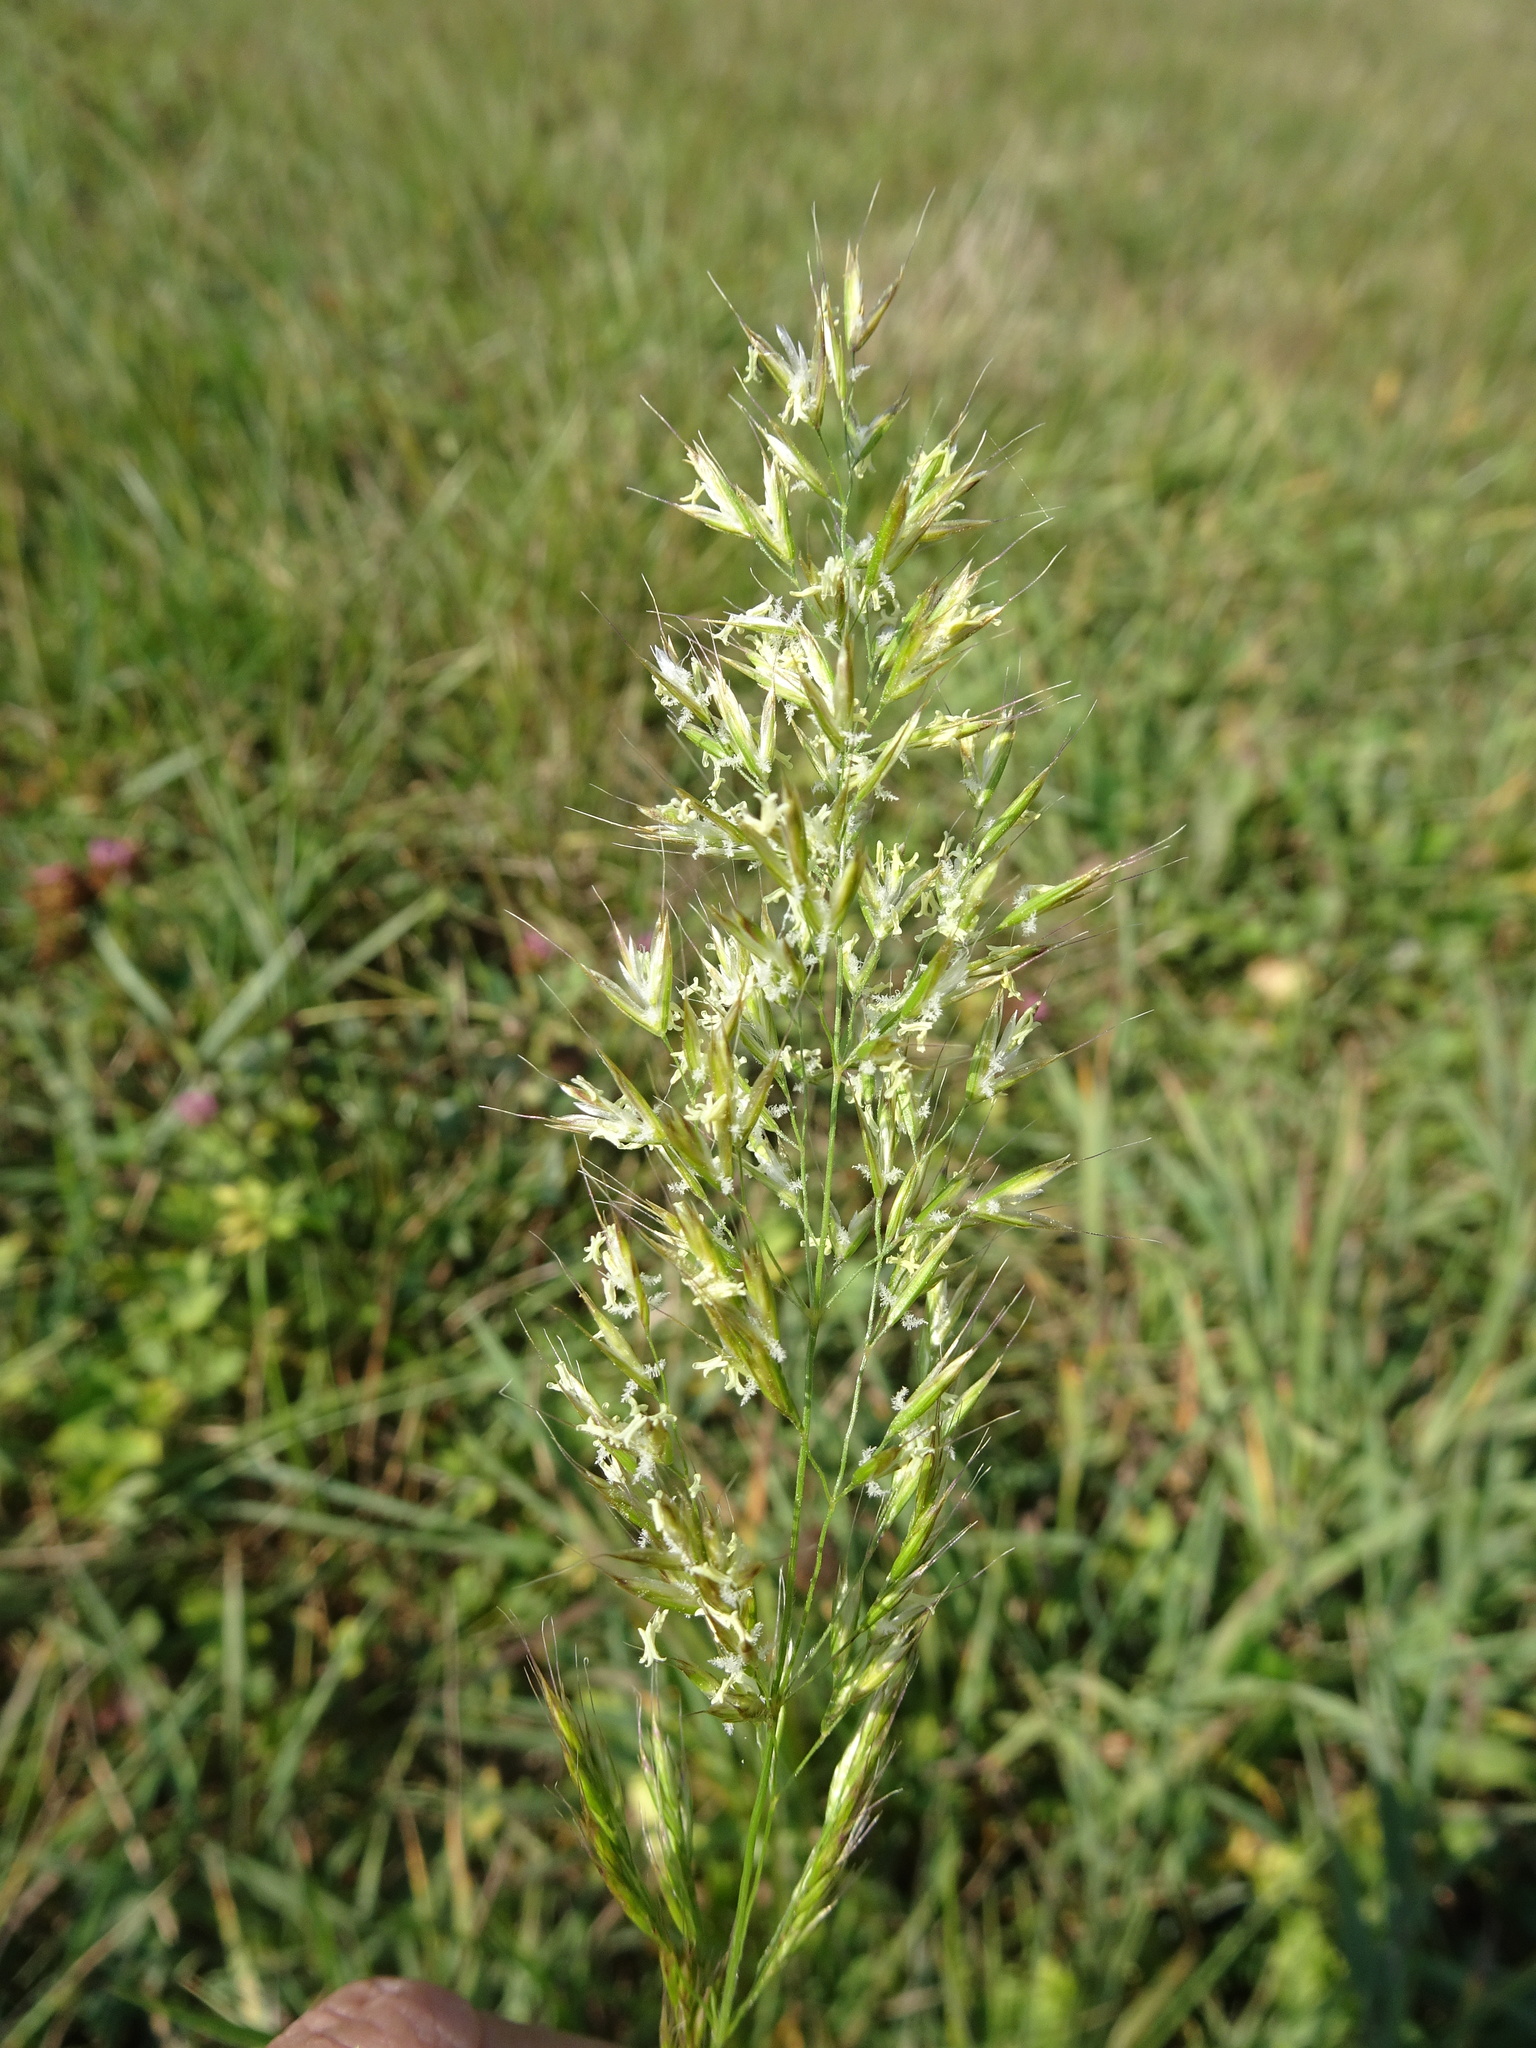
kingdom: Plantae
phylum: Tracheophyta
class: Liliopsida
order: Poales
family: Poaceae
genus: Trisetum
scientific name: Trisetum flavescens
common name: Yellow oat-grass
